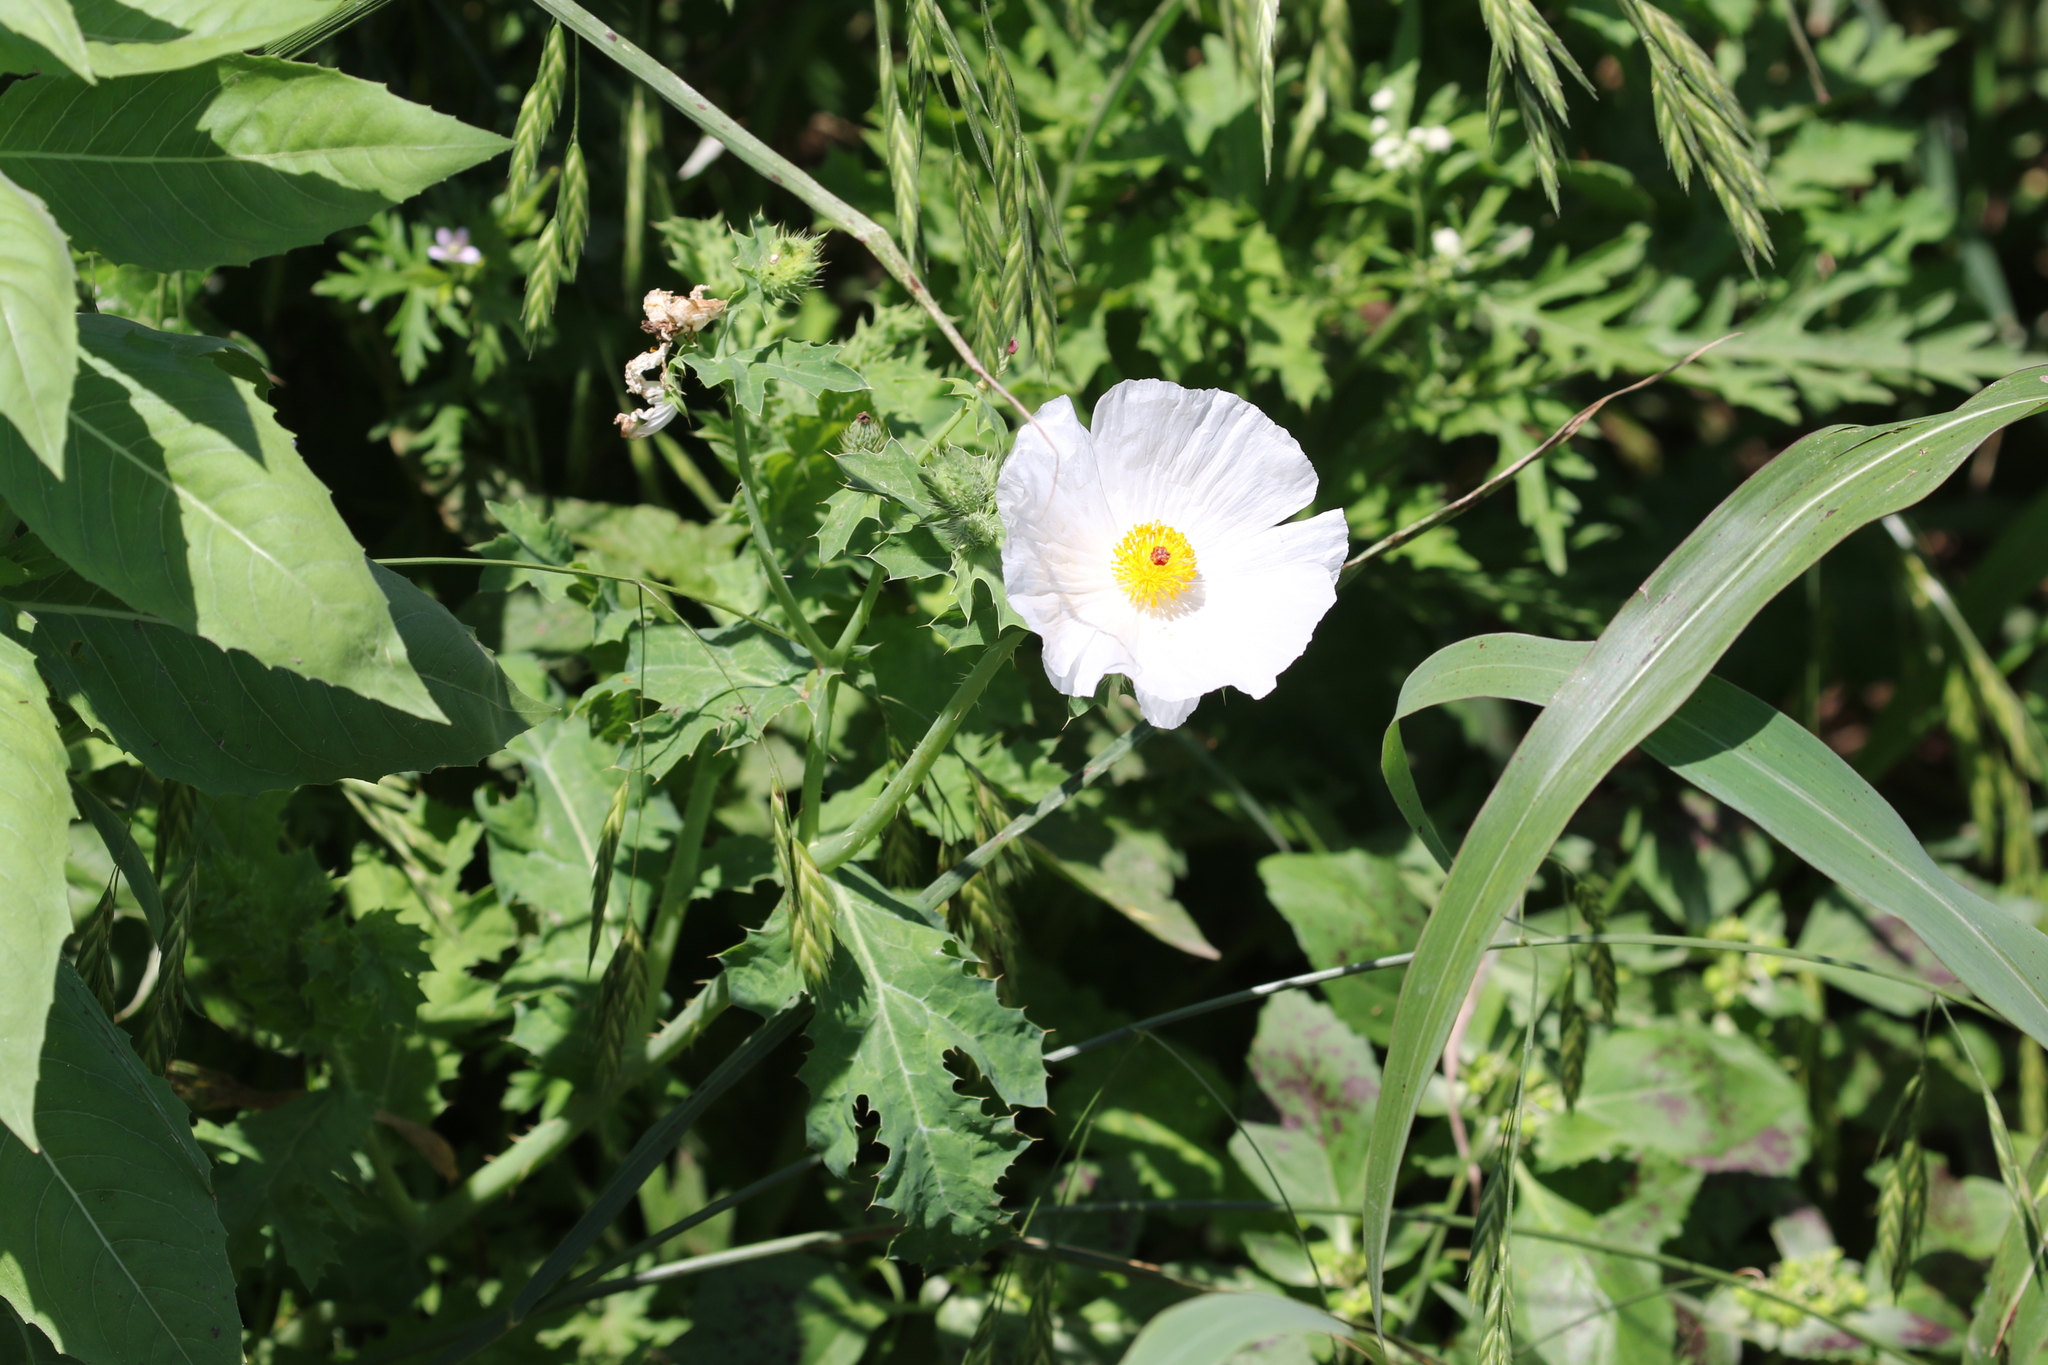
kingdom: Plantae
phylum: Tracheophyta
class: Magnoliopsida
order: Ranunculales
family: Papaveraceae
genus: Argemone
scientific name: Argemone albiflora
